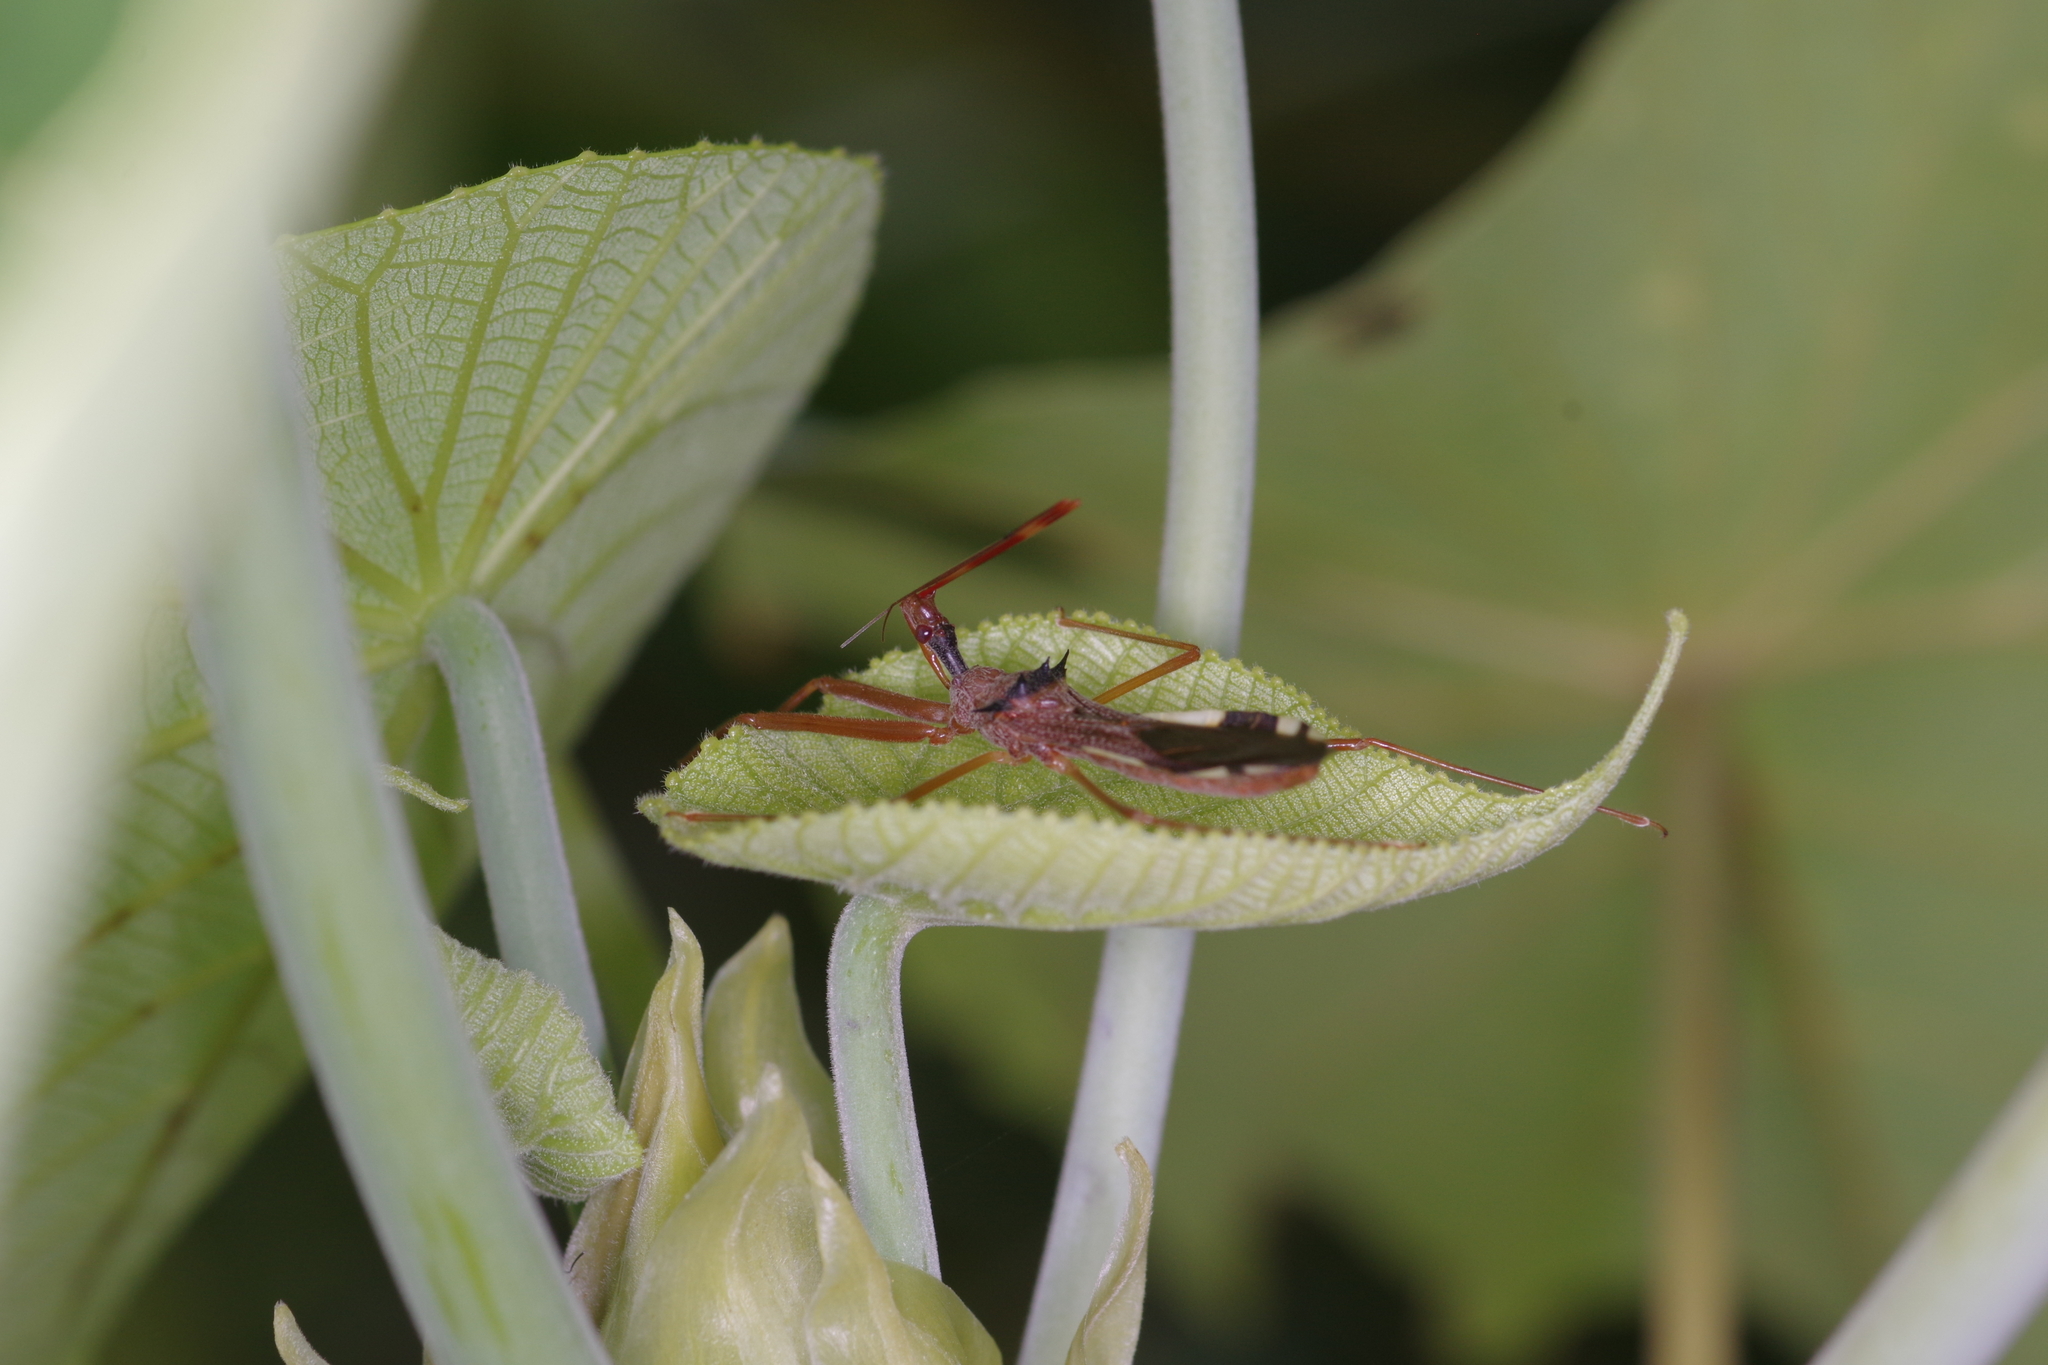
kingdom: Animalia
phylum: Arthropoda
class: Insecta
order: Hemiptera
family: Reduviidae
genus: Epidaus
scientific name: Epidaus sexspinus
